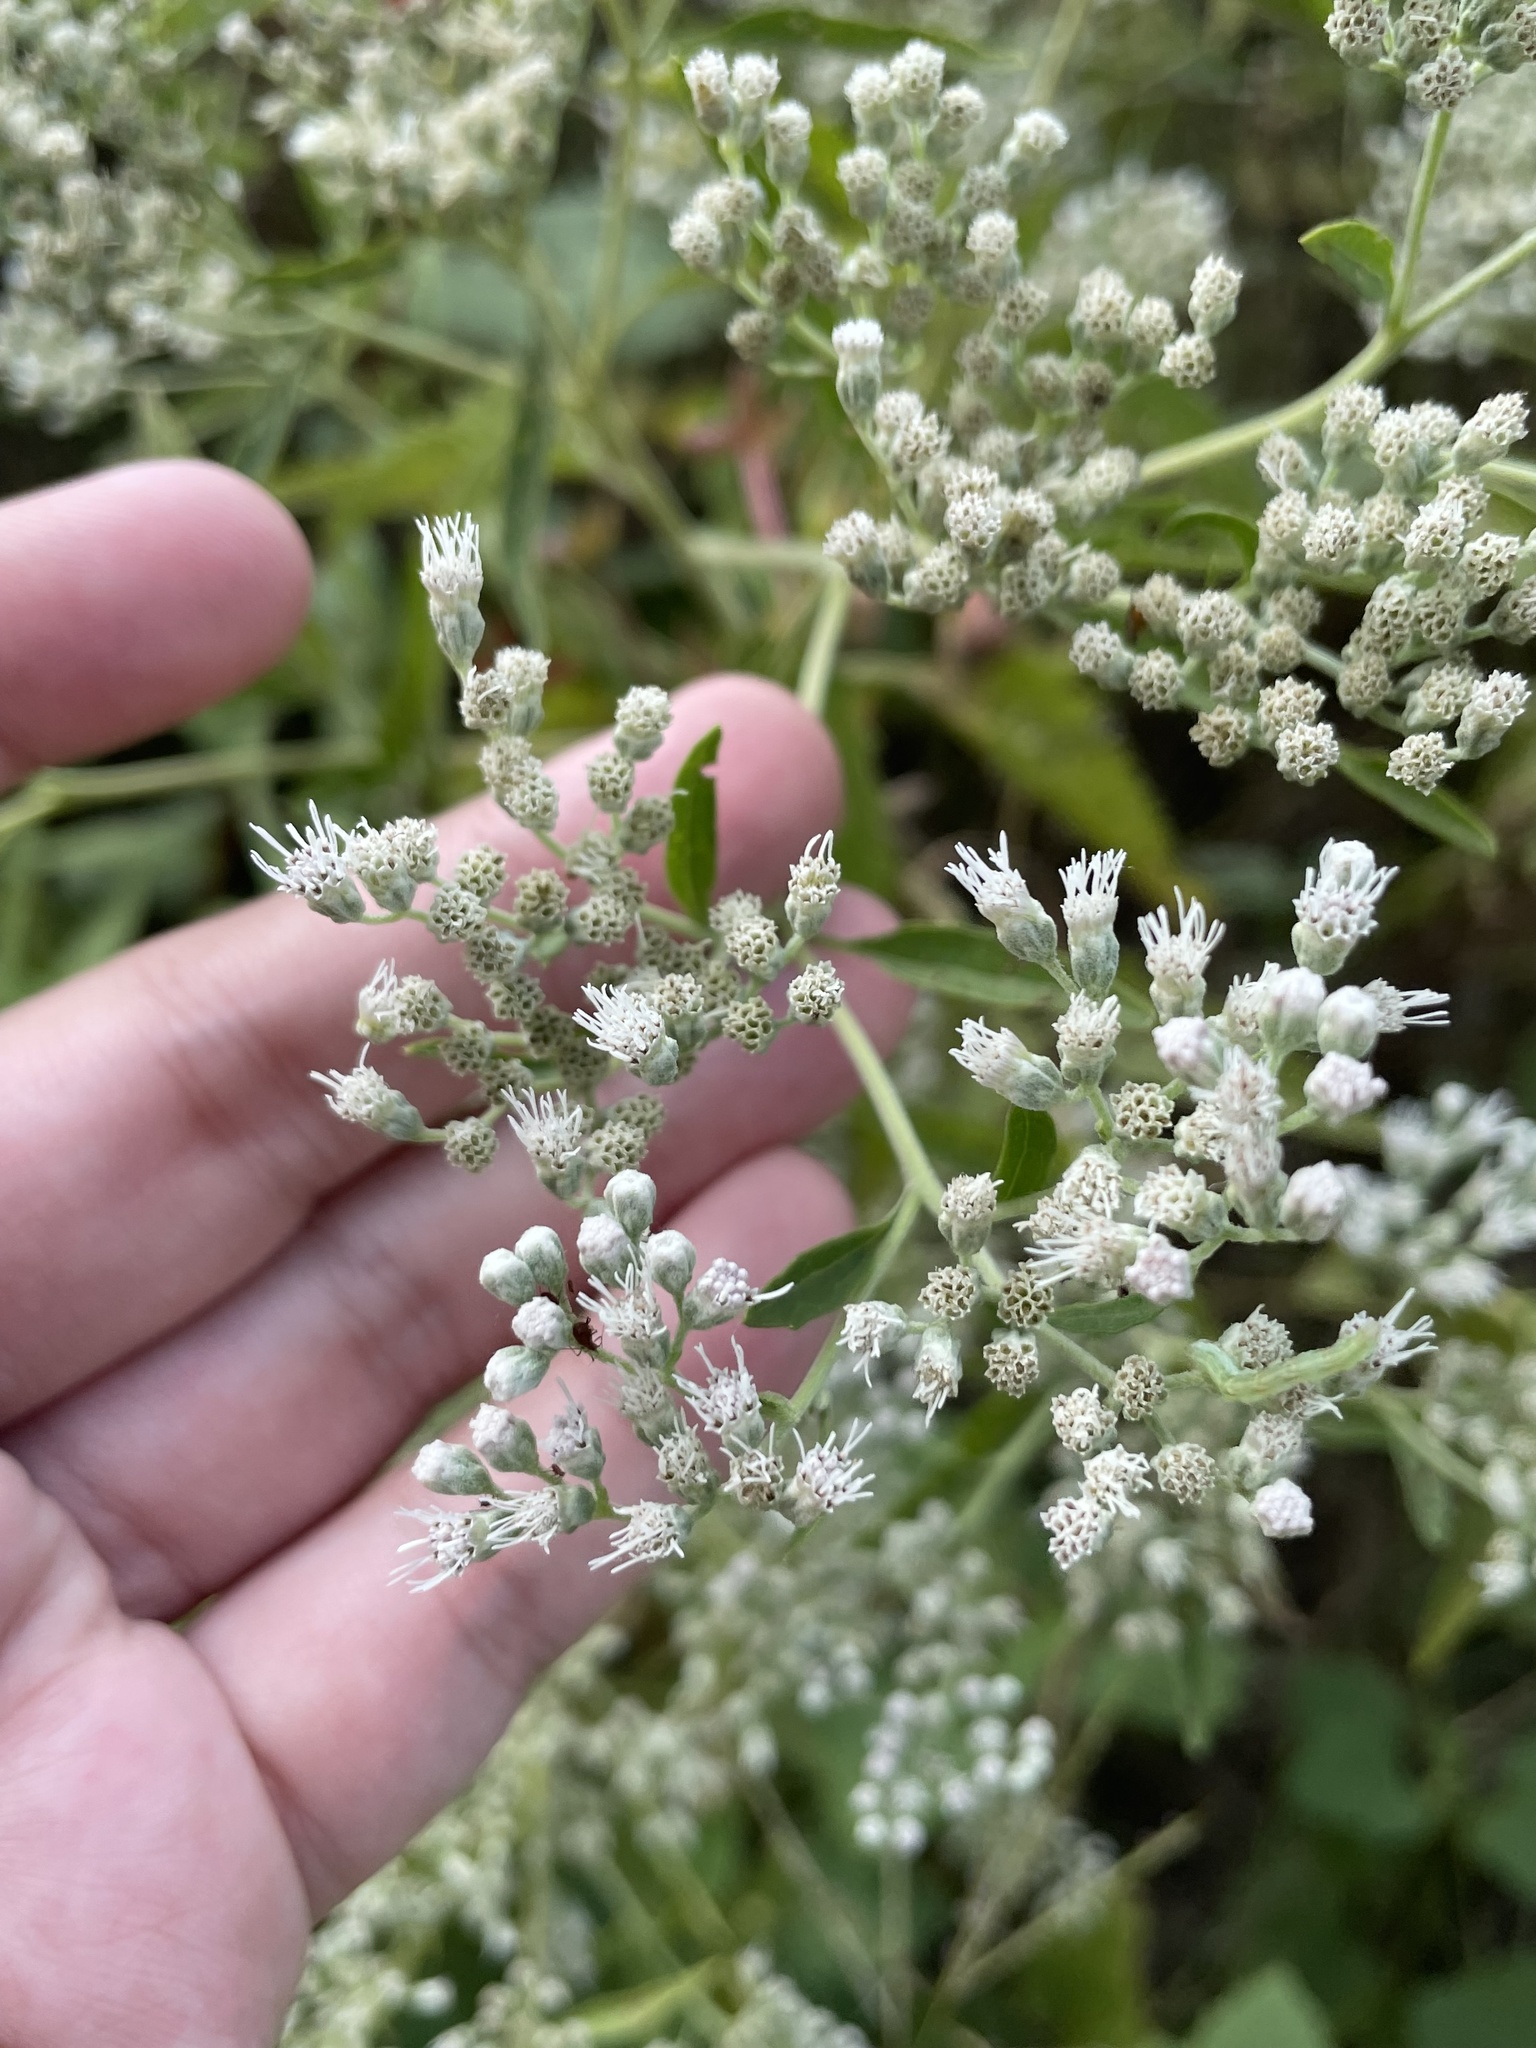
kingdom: Plantae
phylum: Tracheophyta
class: Magnoliopsida
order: Asterales
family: Asteraceae
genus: Eupatorium
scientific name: Eupatorium serotinum
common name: Late boneset
